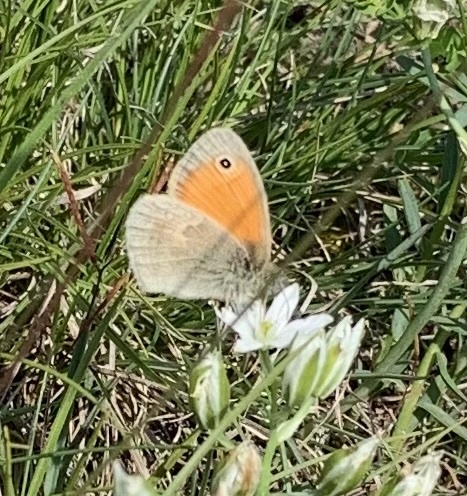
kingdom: Animalia
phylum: Arthropoda
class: Insecta
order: Lepidoptera
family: Nymphalidae
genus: Coenonympha
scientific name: Coenonympha pamphilus
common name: Small heath
